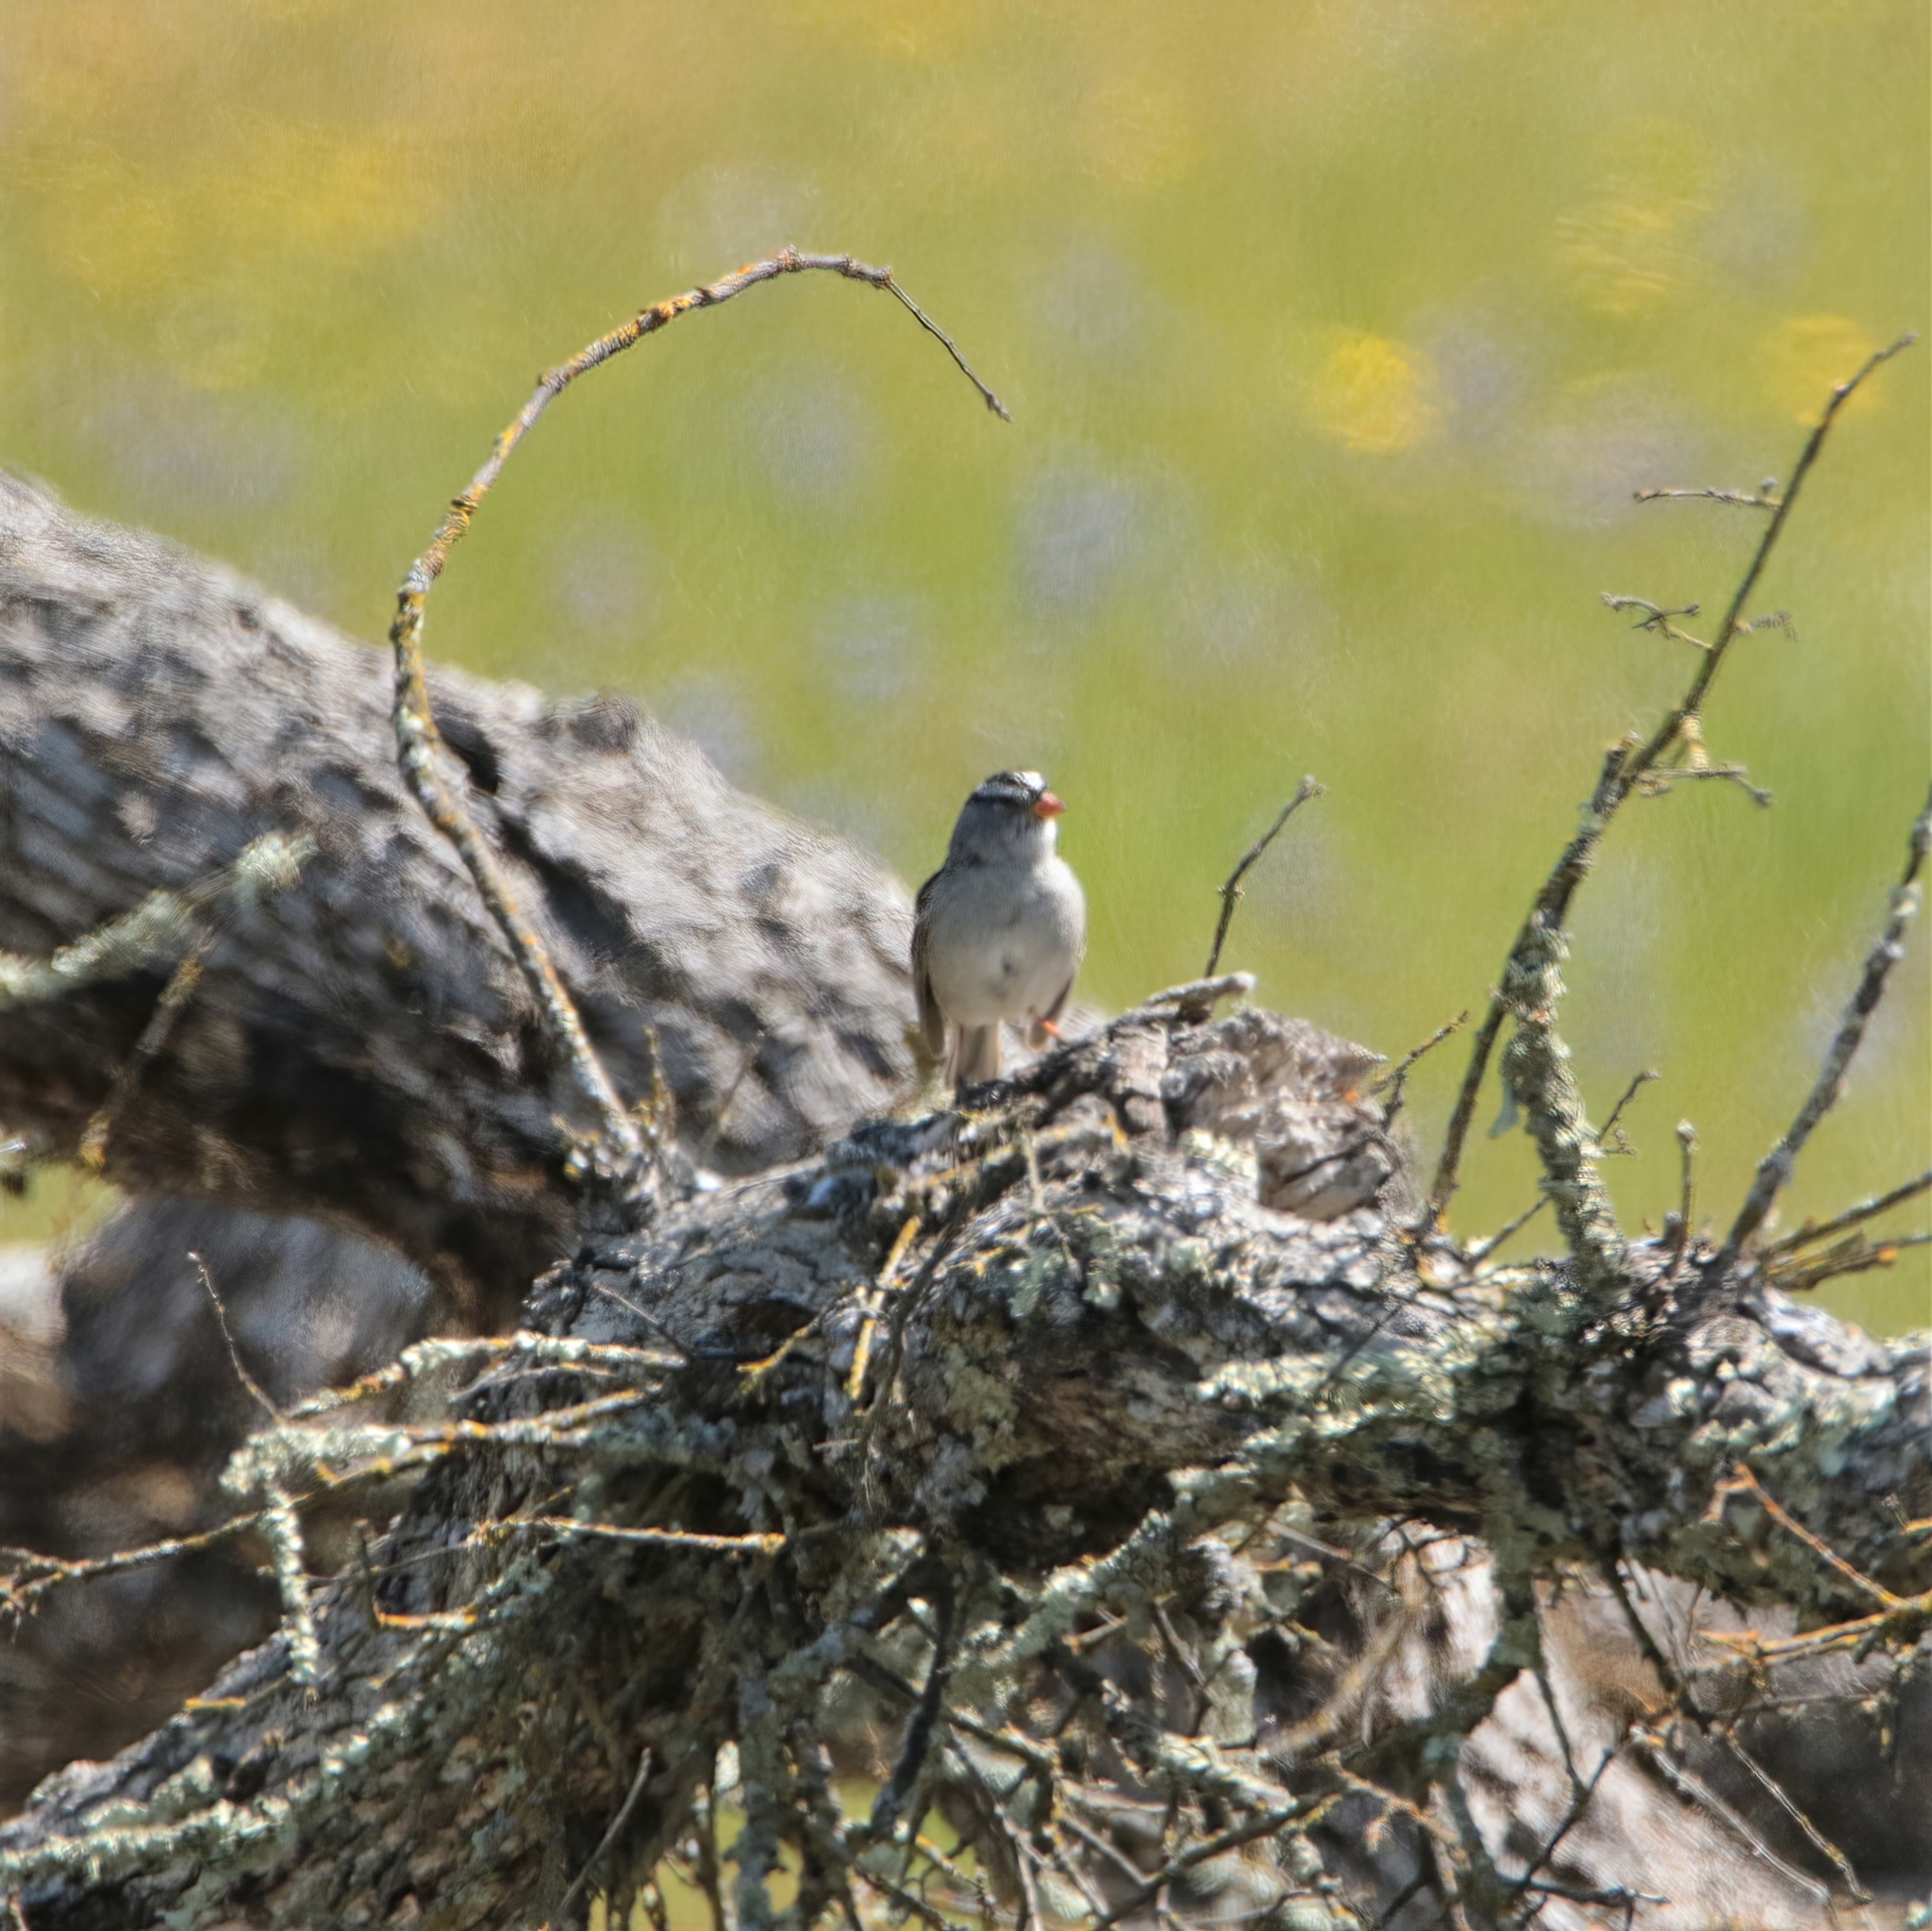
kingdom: Animalia
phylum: Chordata
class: Aves
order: Passeriformes
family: Passerellidae
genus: Zonotrichia
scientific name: Zonotrichia leucophrys
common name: White-crowned sparrow
